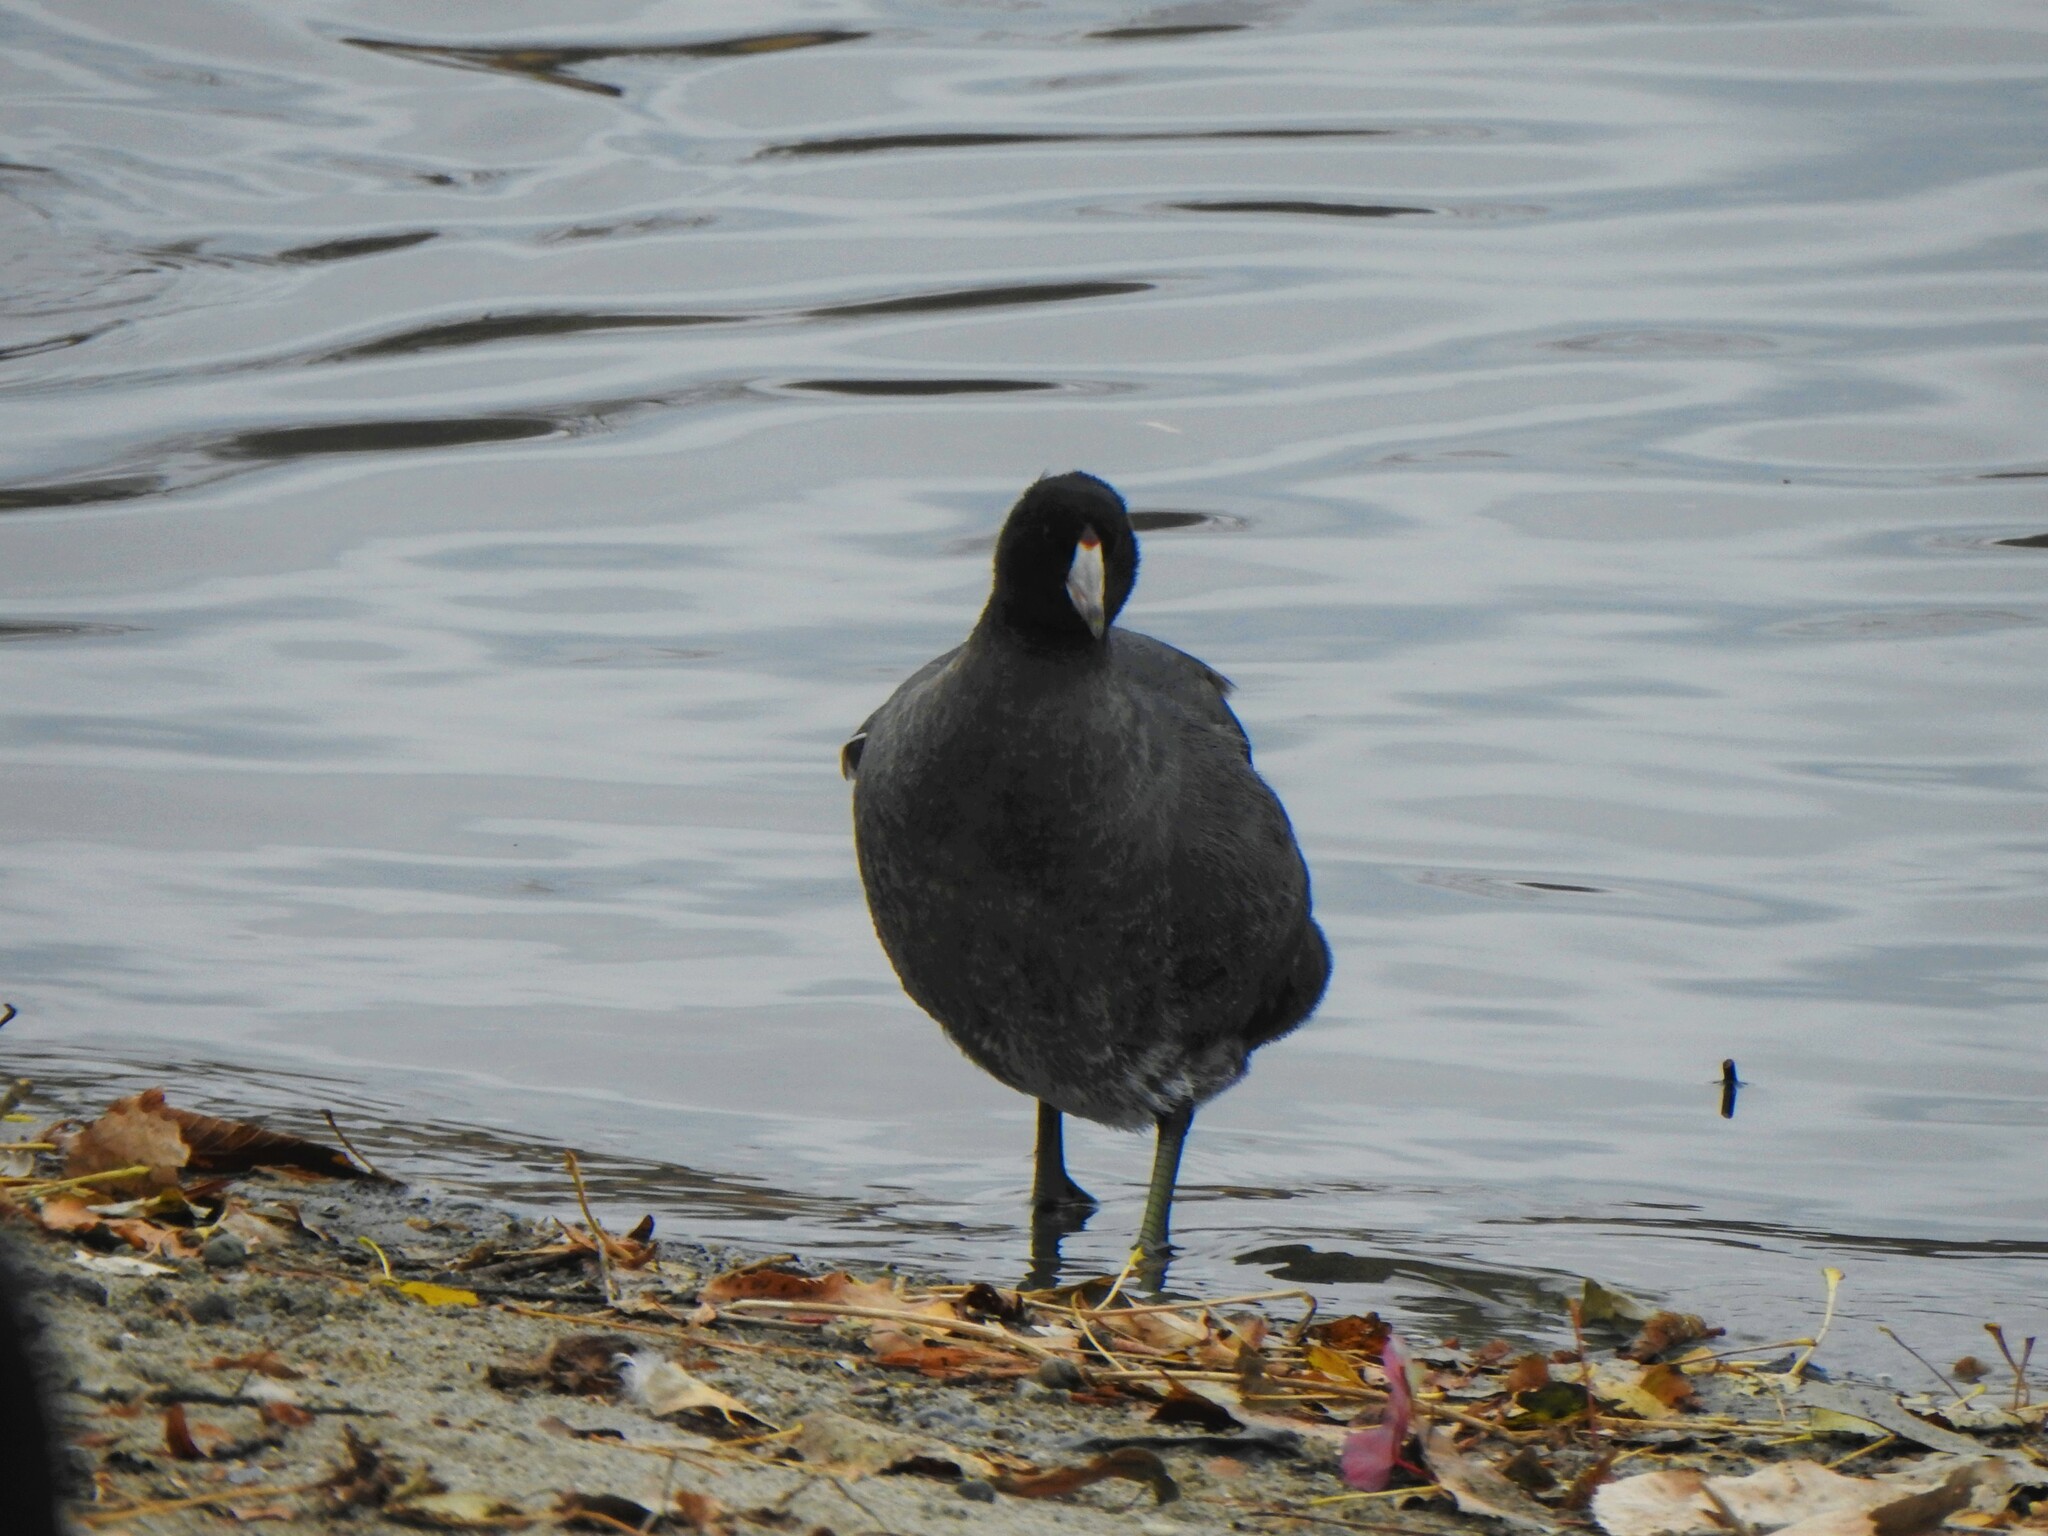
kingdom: Animalia
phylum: Chordata
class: Aves
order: Gruiformes
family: Rallidae
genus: Fulica
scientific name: Fulica americana
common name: American coot
